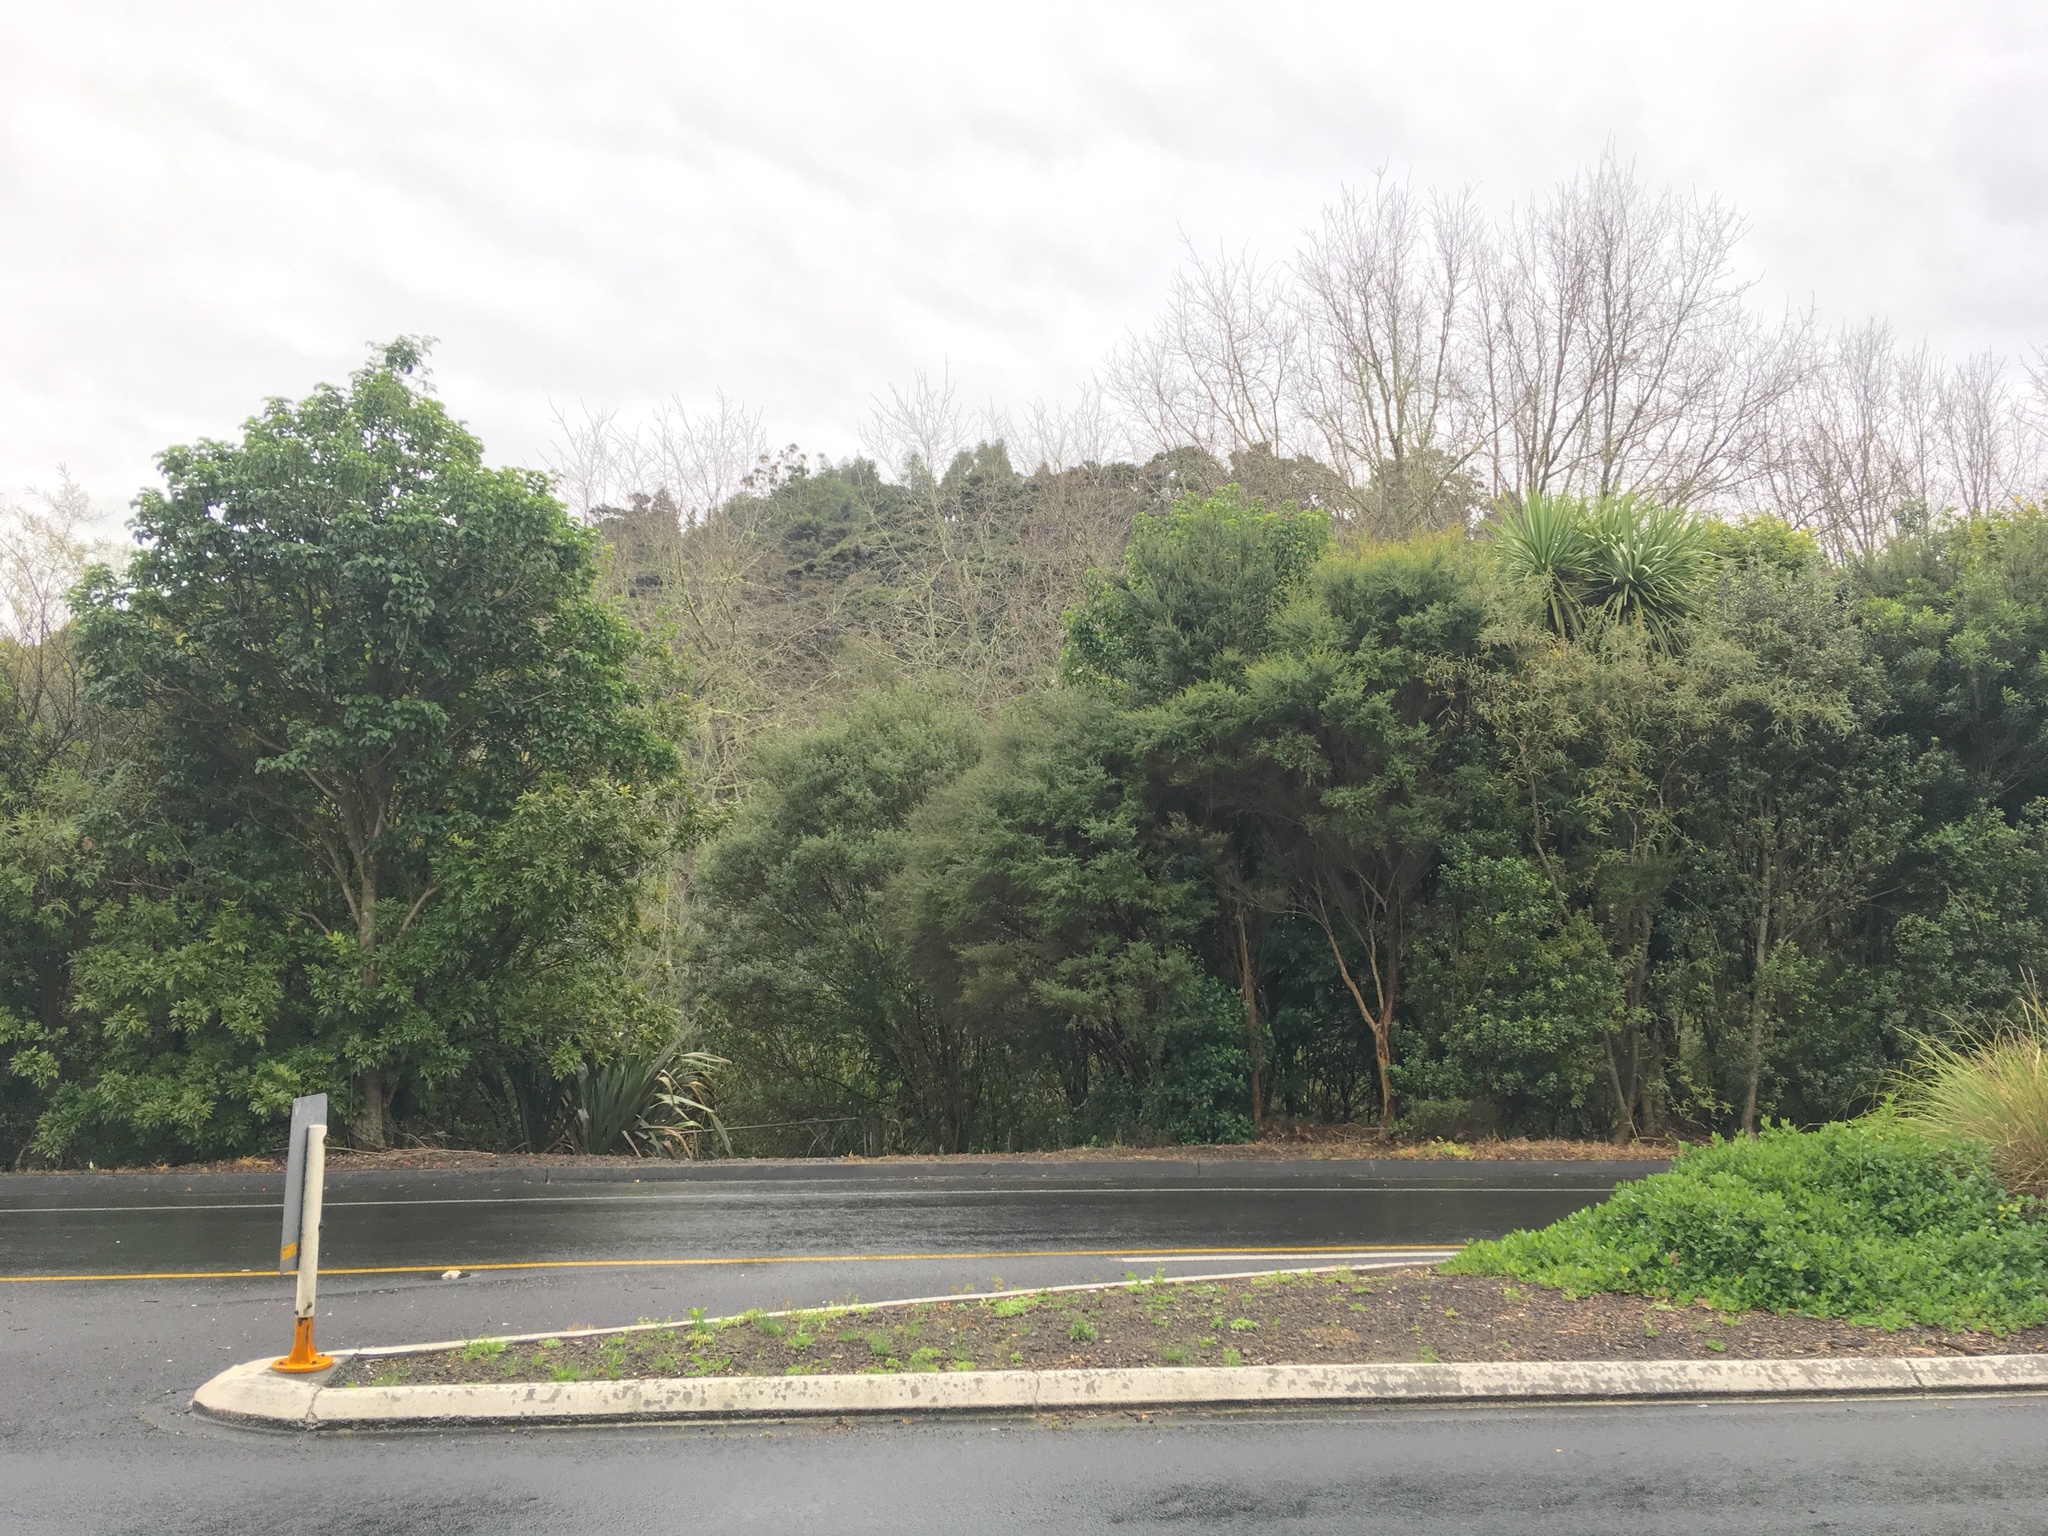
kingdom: Plantae
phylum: Tracheophyta
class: Magnoliopsida
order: Lamiales
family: Lamiaceae
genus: Vitex
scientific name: Vitex lucens
